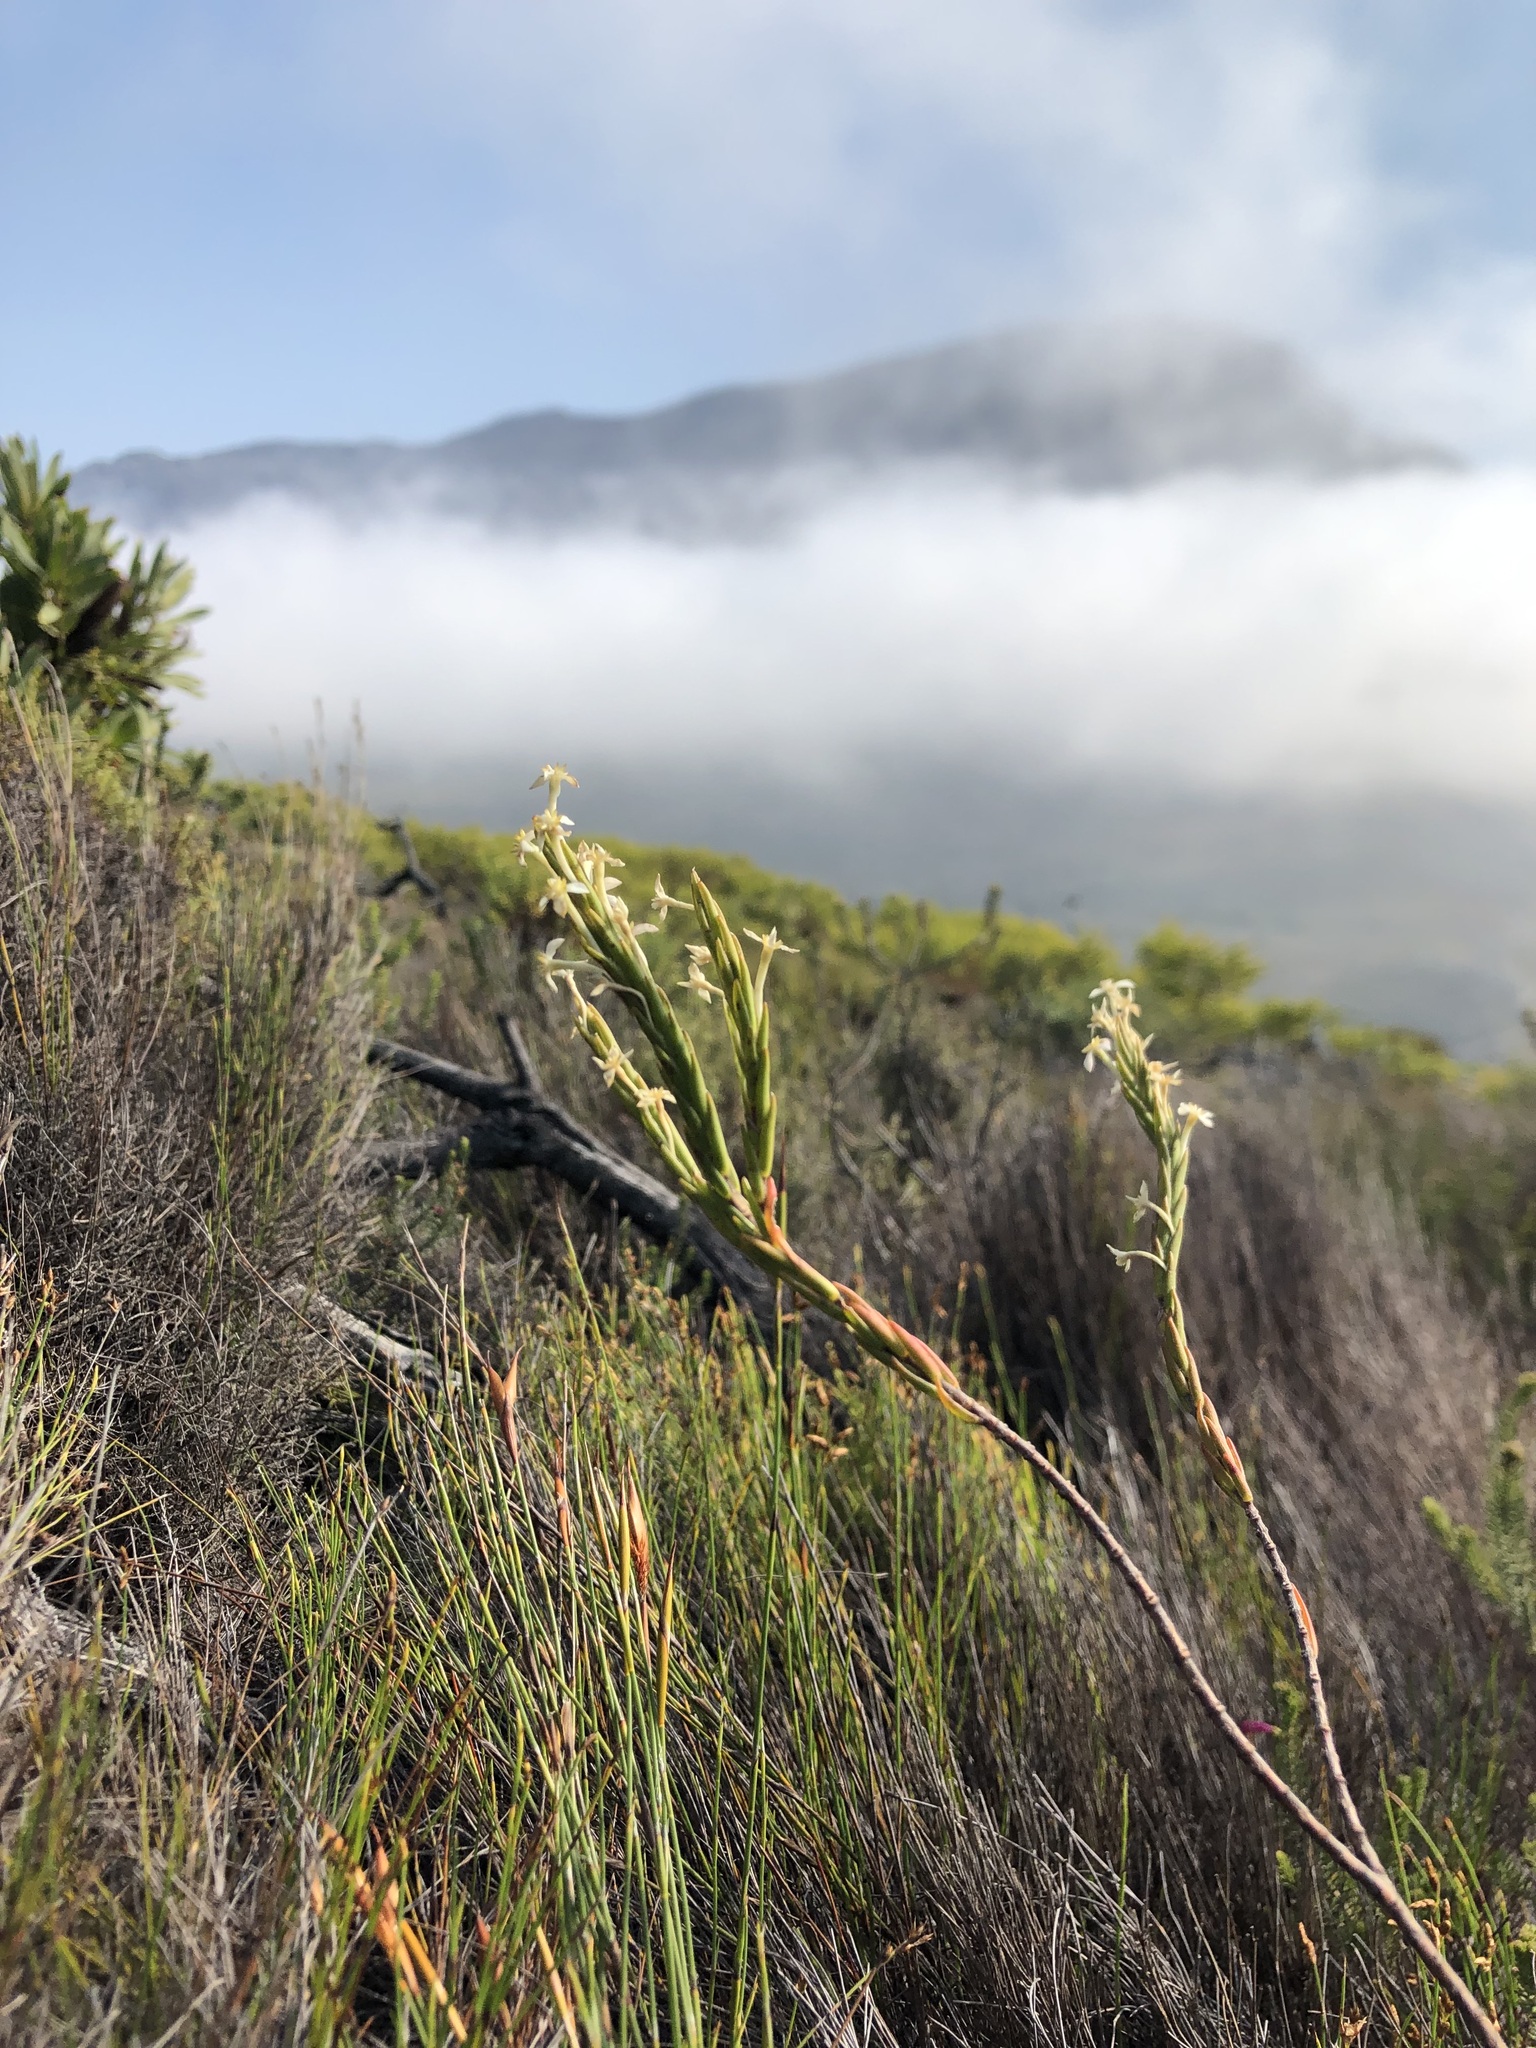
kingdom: Plantae
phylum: Tracheophyta
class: Magnoliopsida
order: Malvales
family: Thymelaeaceae
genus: Struthiola
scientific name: Struthiola ciliata
